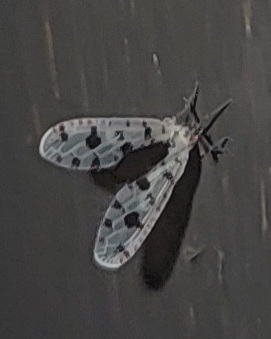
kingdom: Animalia
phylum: Arthropoda
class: Insecta
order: Hemiptera
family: Derbidae
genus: Sikaiana
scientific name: Sikaiana harti
